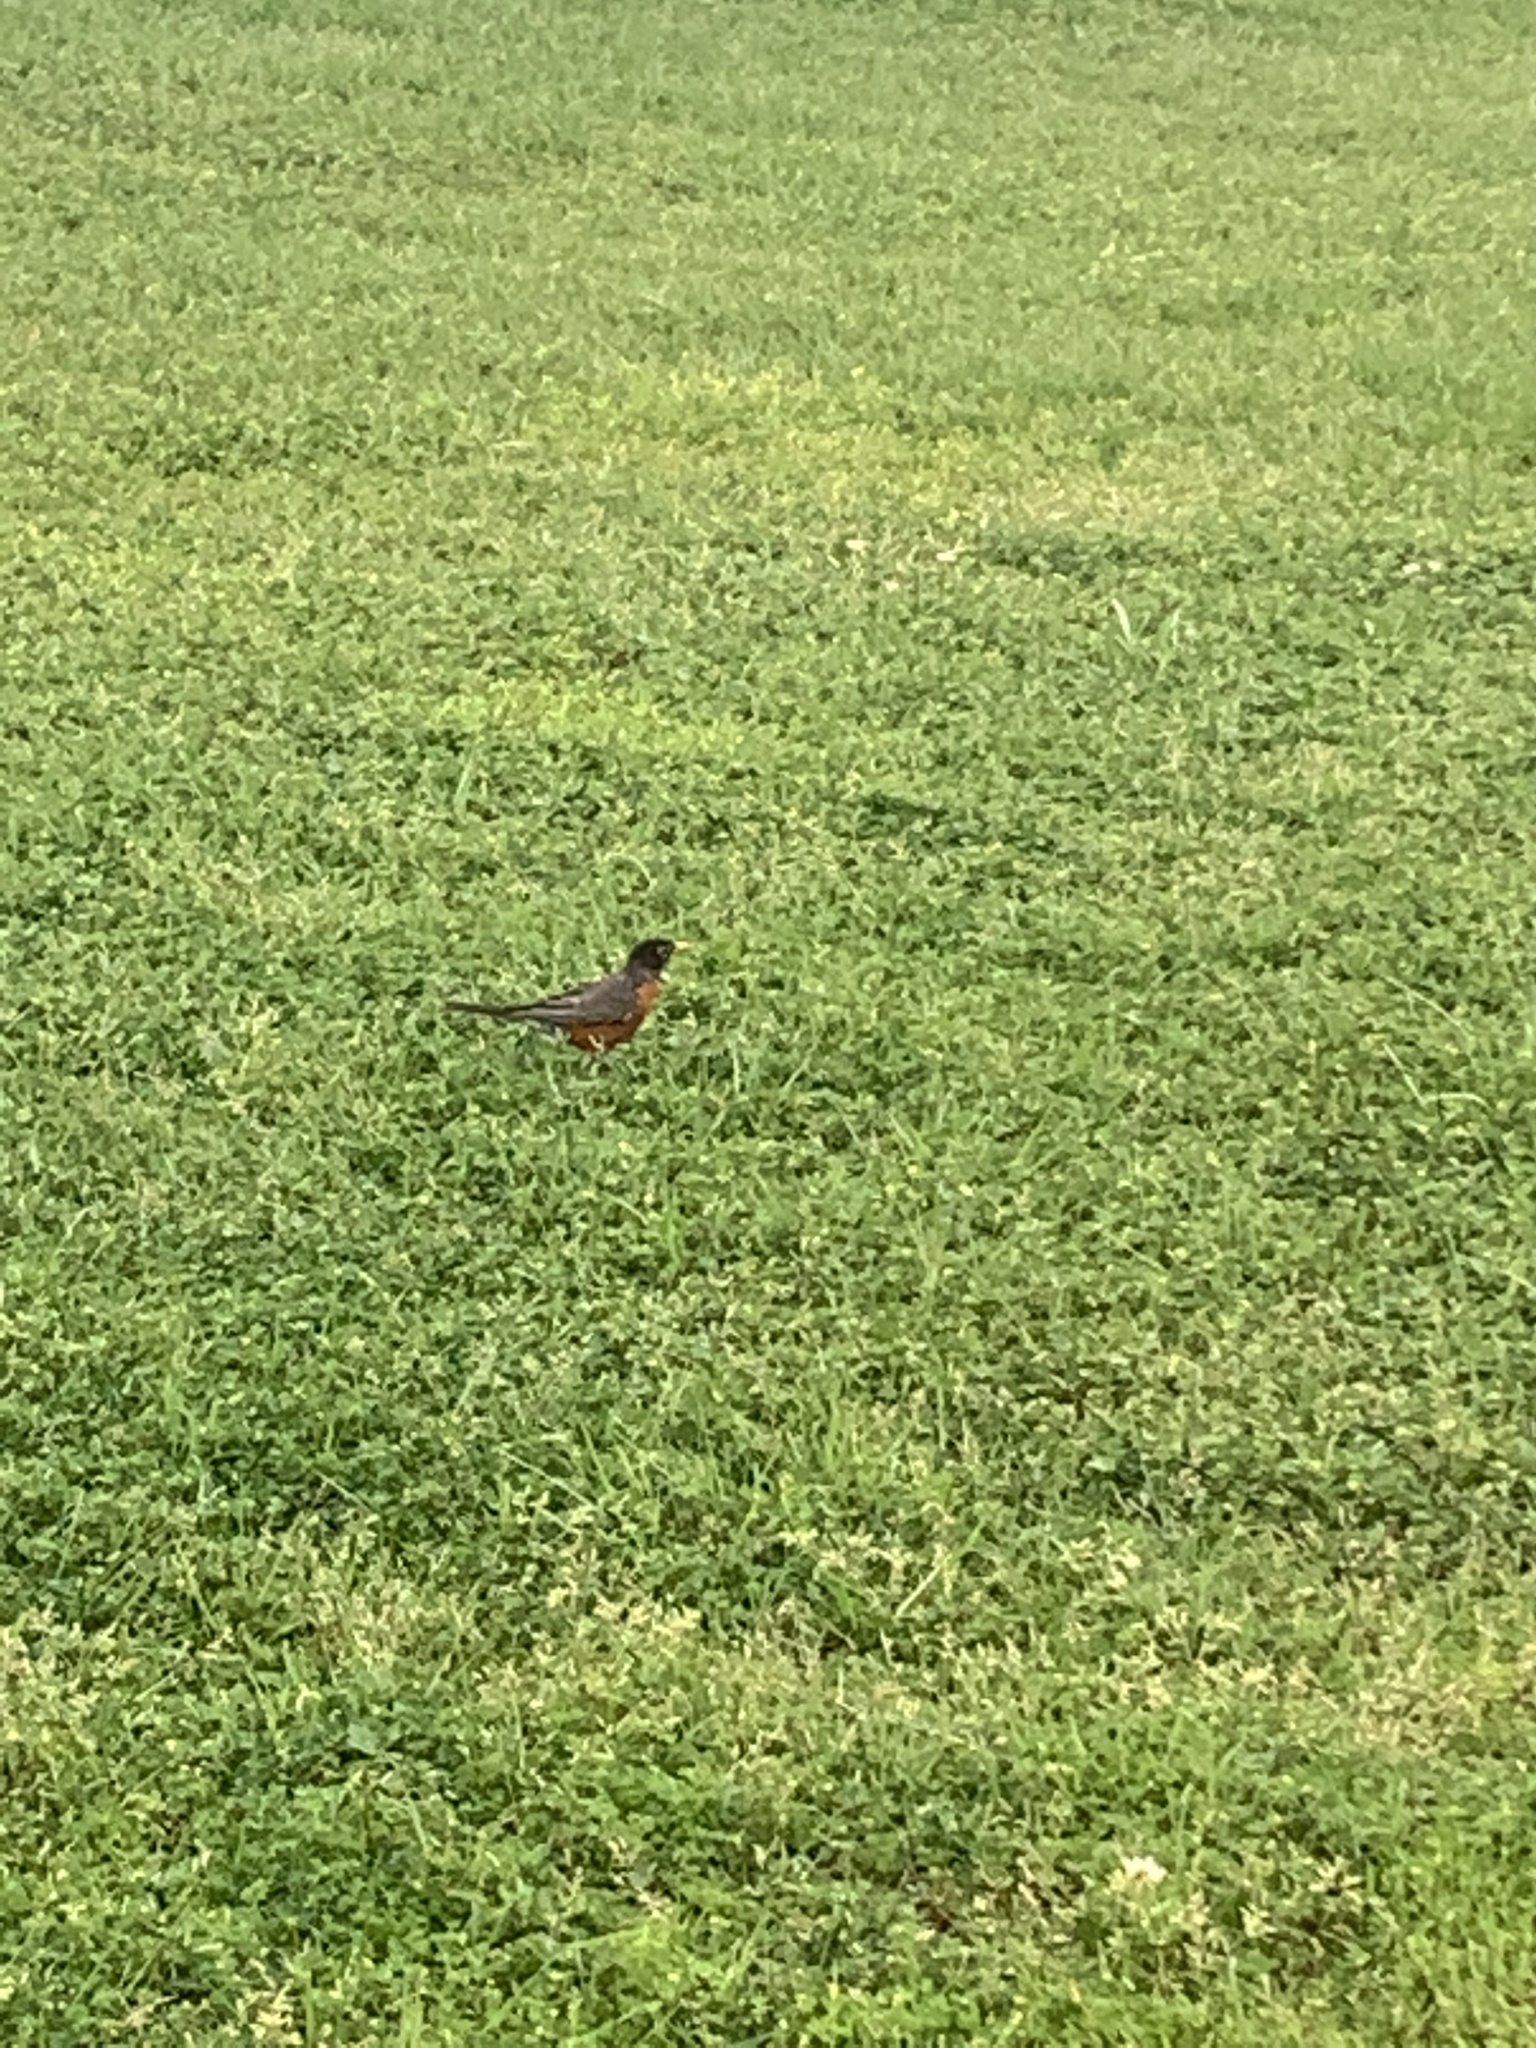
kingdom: Animalia
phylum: Chordata
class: Aves
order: Passeriformes
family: Turdidae
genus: Turdus
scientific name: Turdus migratorius
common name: American robin
